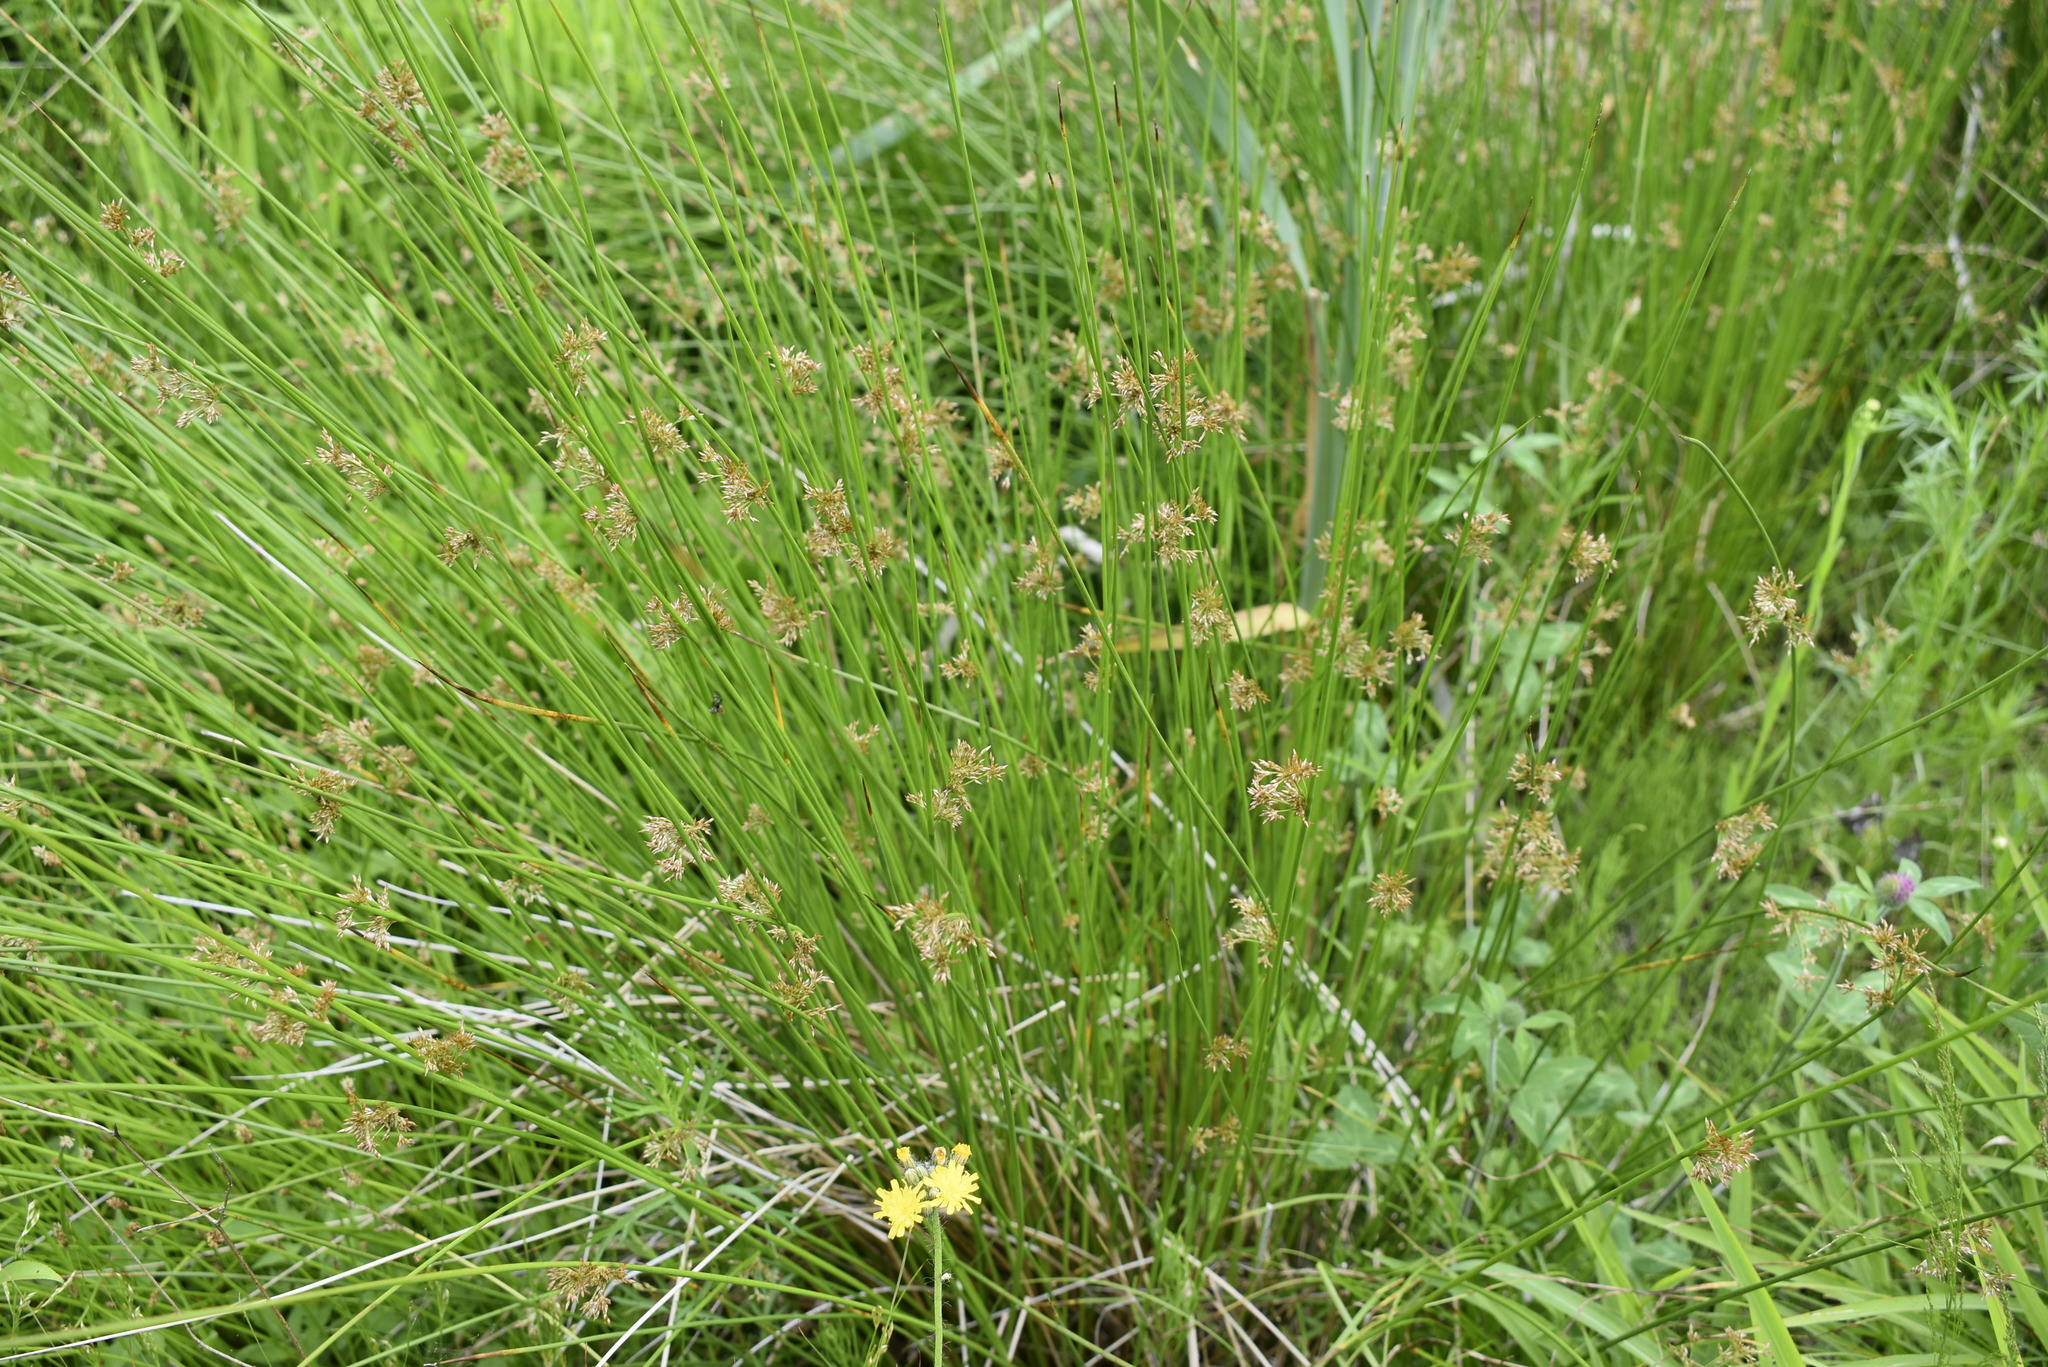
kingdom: Plantae
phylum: Tracheophyta
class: Liliopsida
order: Poales
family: Juncaceae
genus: Juncus
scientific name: Juncus decipiens
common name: Lamp rush
